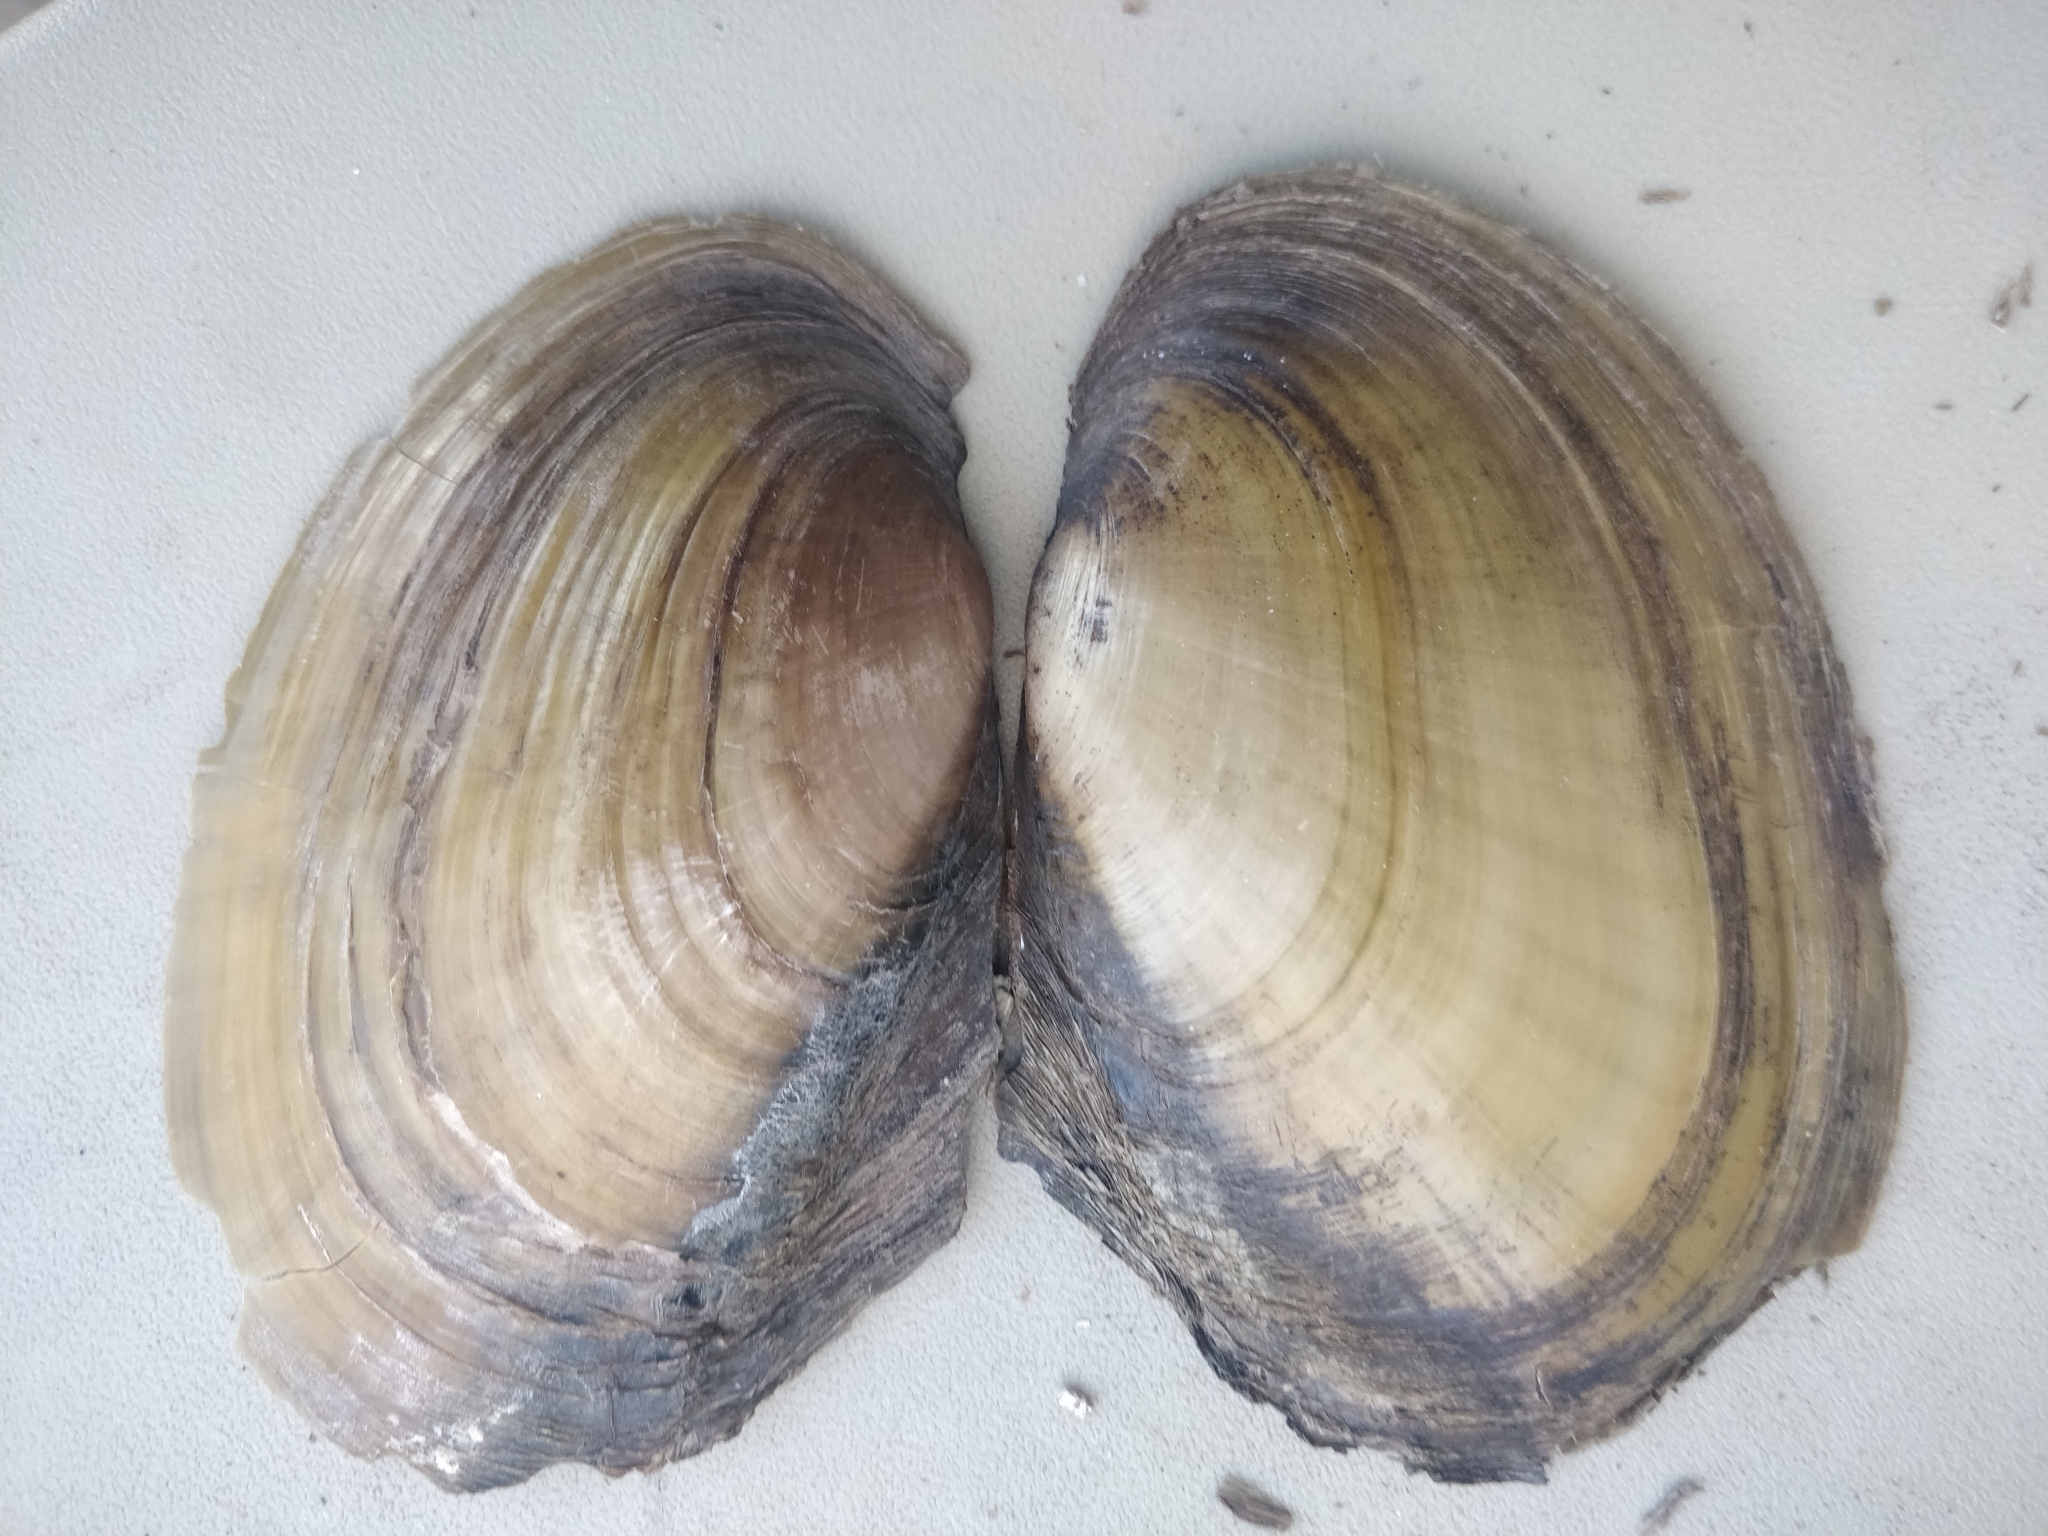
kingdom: Animalia
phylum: Mollusca
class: Bivalvia
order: Unionida
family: Unionidae
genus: Potamilus
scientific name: Potamilus fragilis
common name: Fragile papershell
